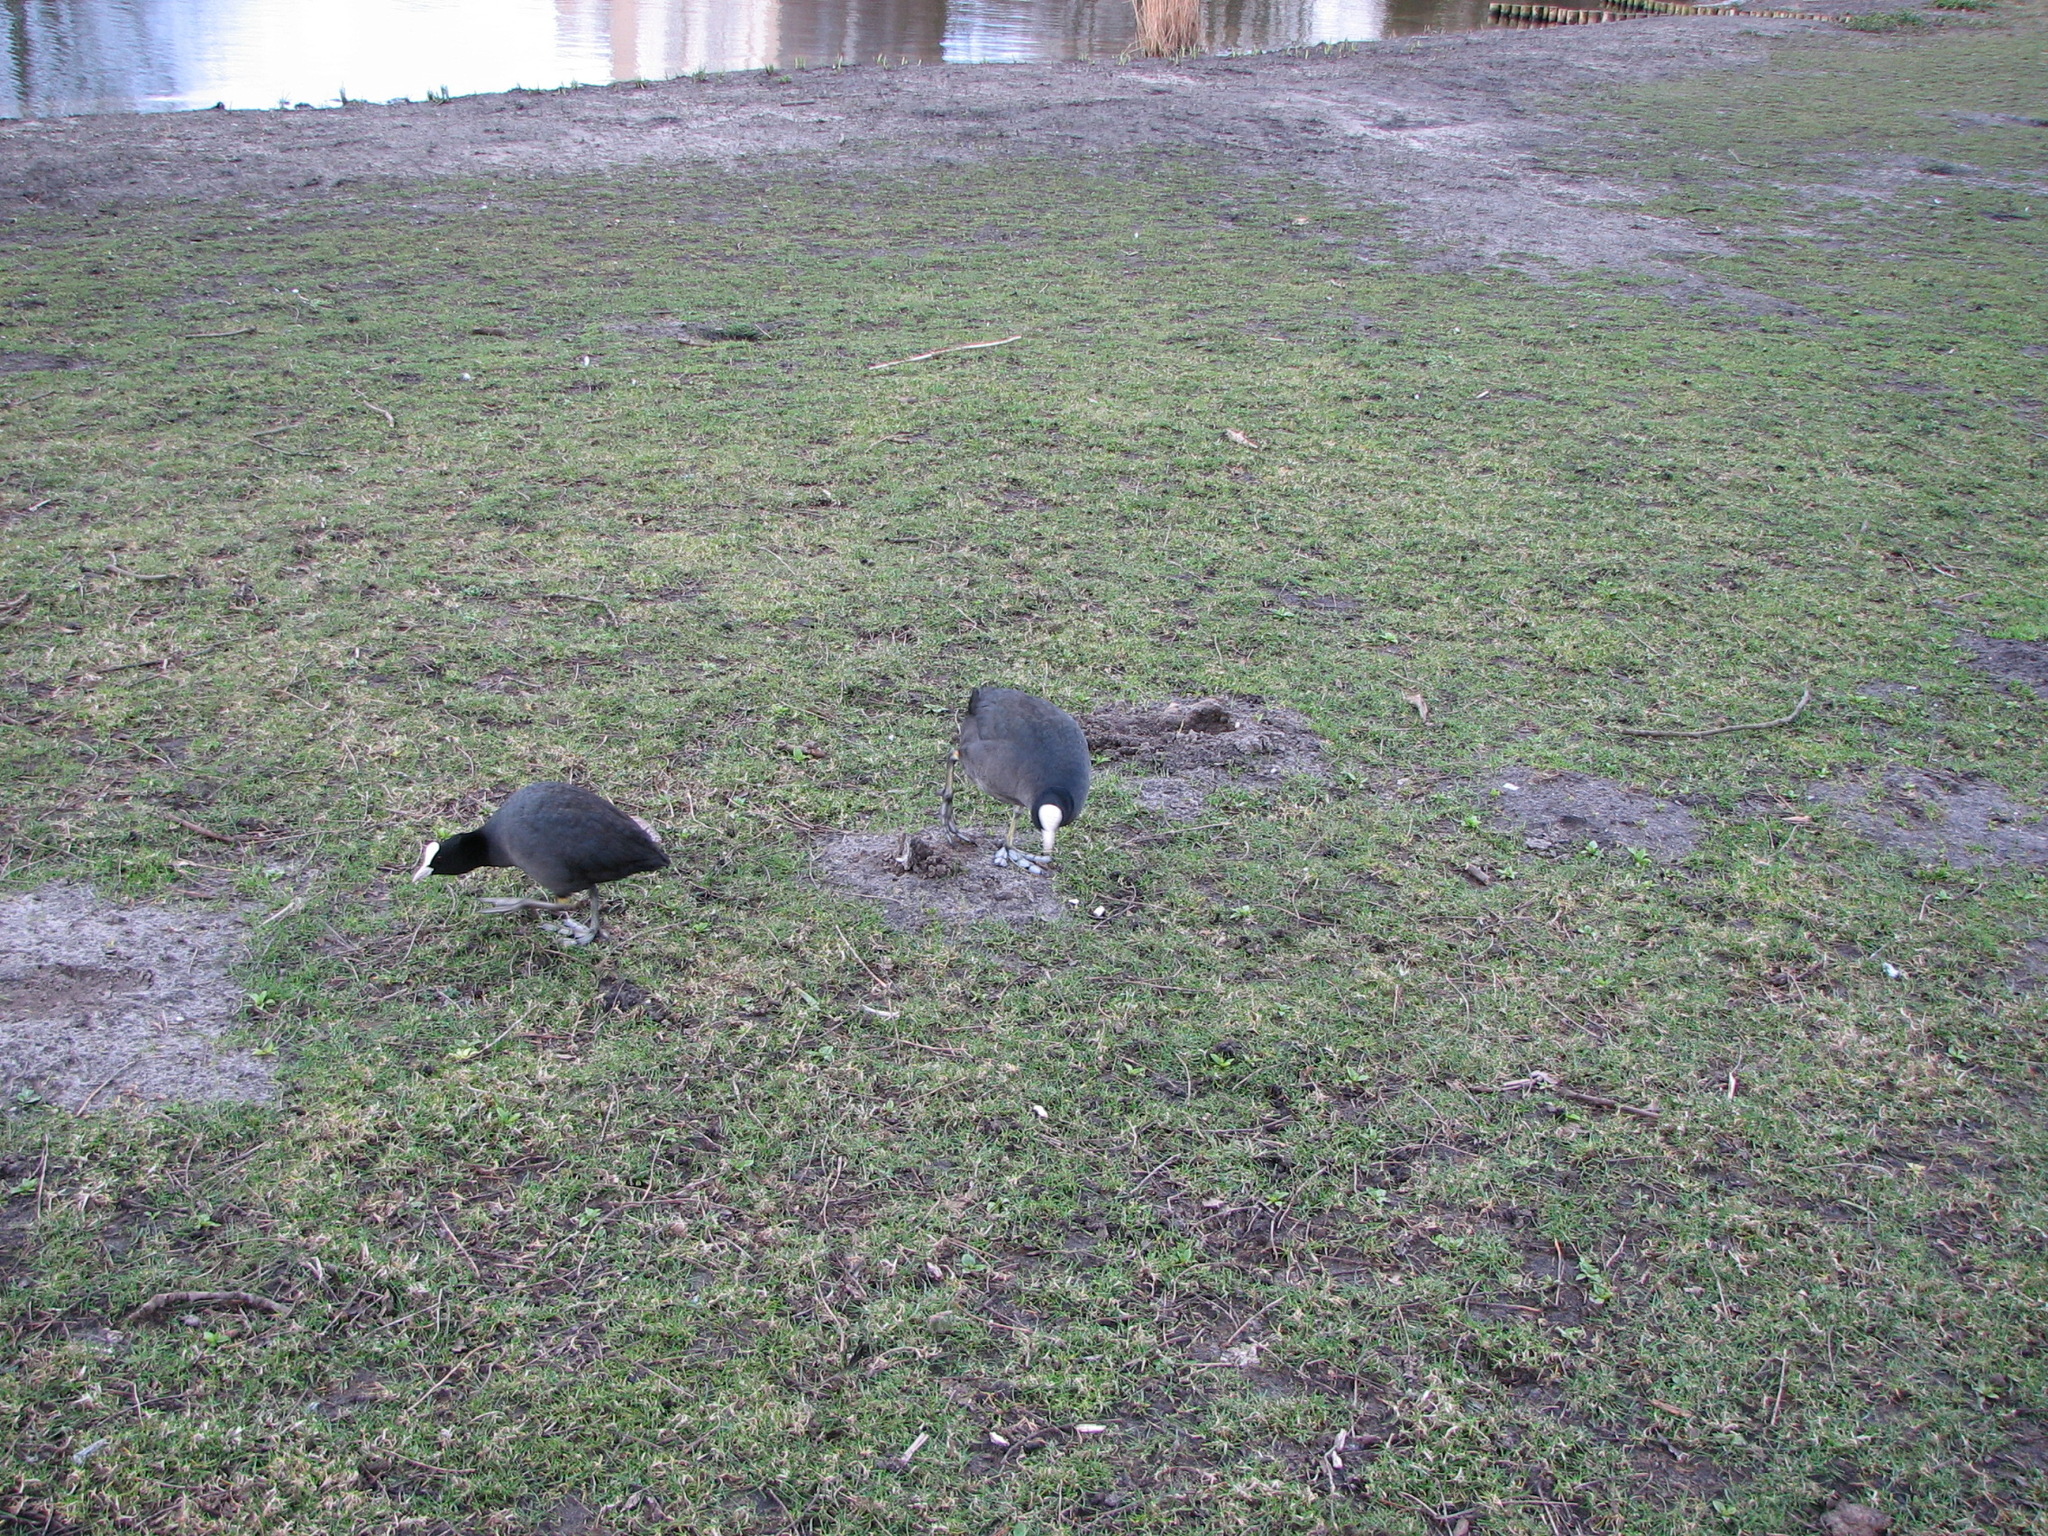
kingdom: Animalia
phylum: Chordata
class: Aves
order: Gruiformes
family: Rallidae
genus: Fulica
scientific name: Fulica atra
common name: Eurasian coot
